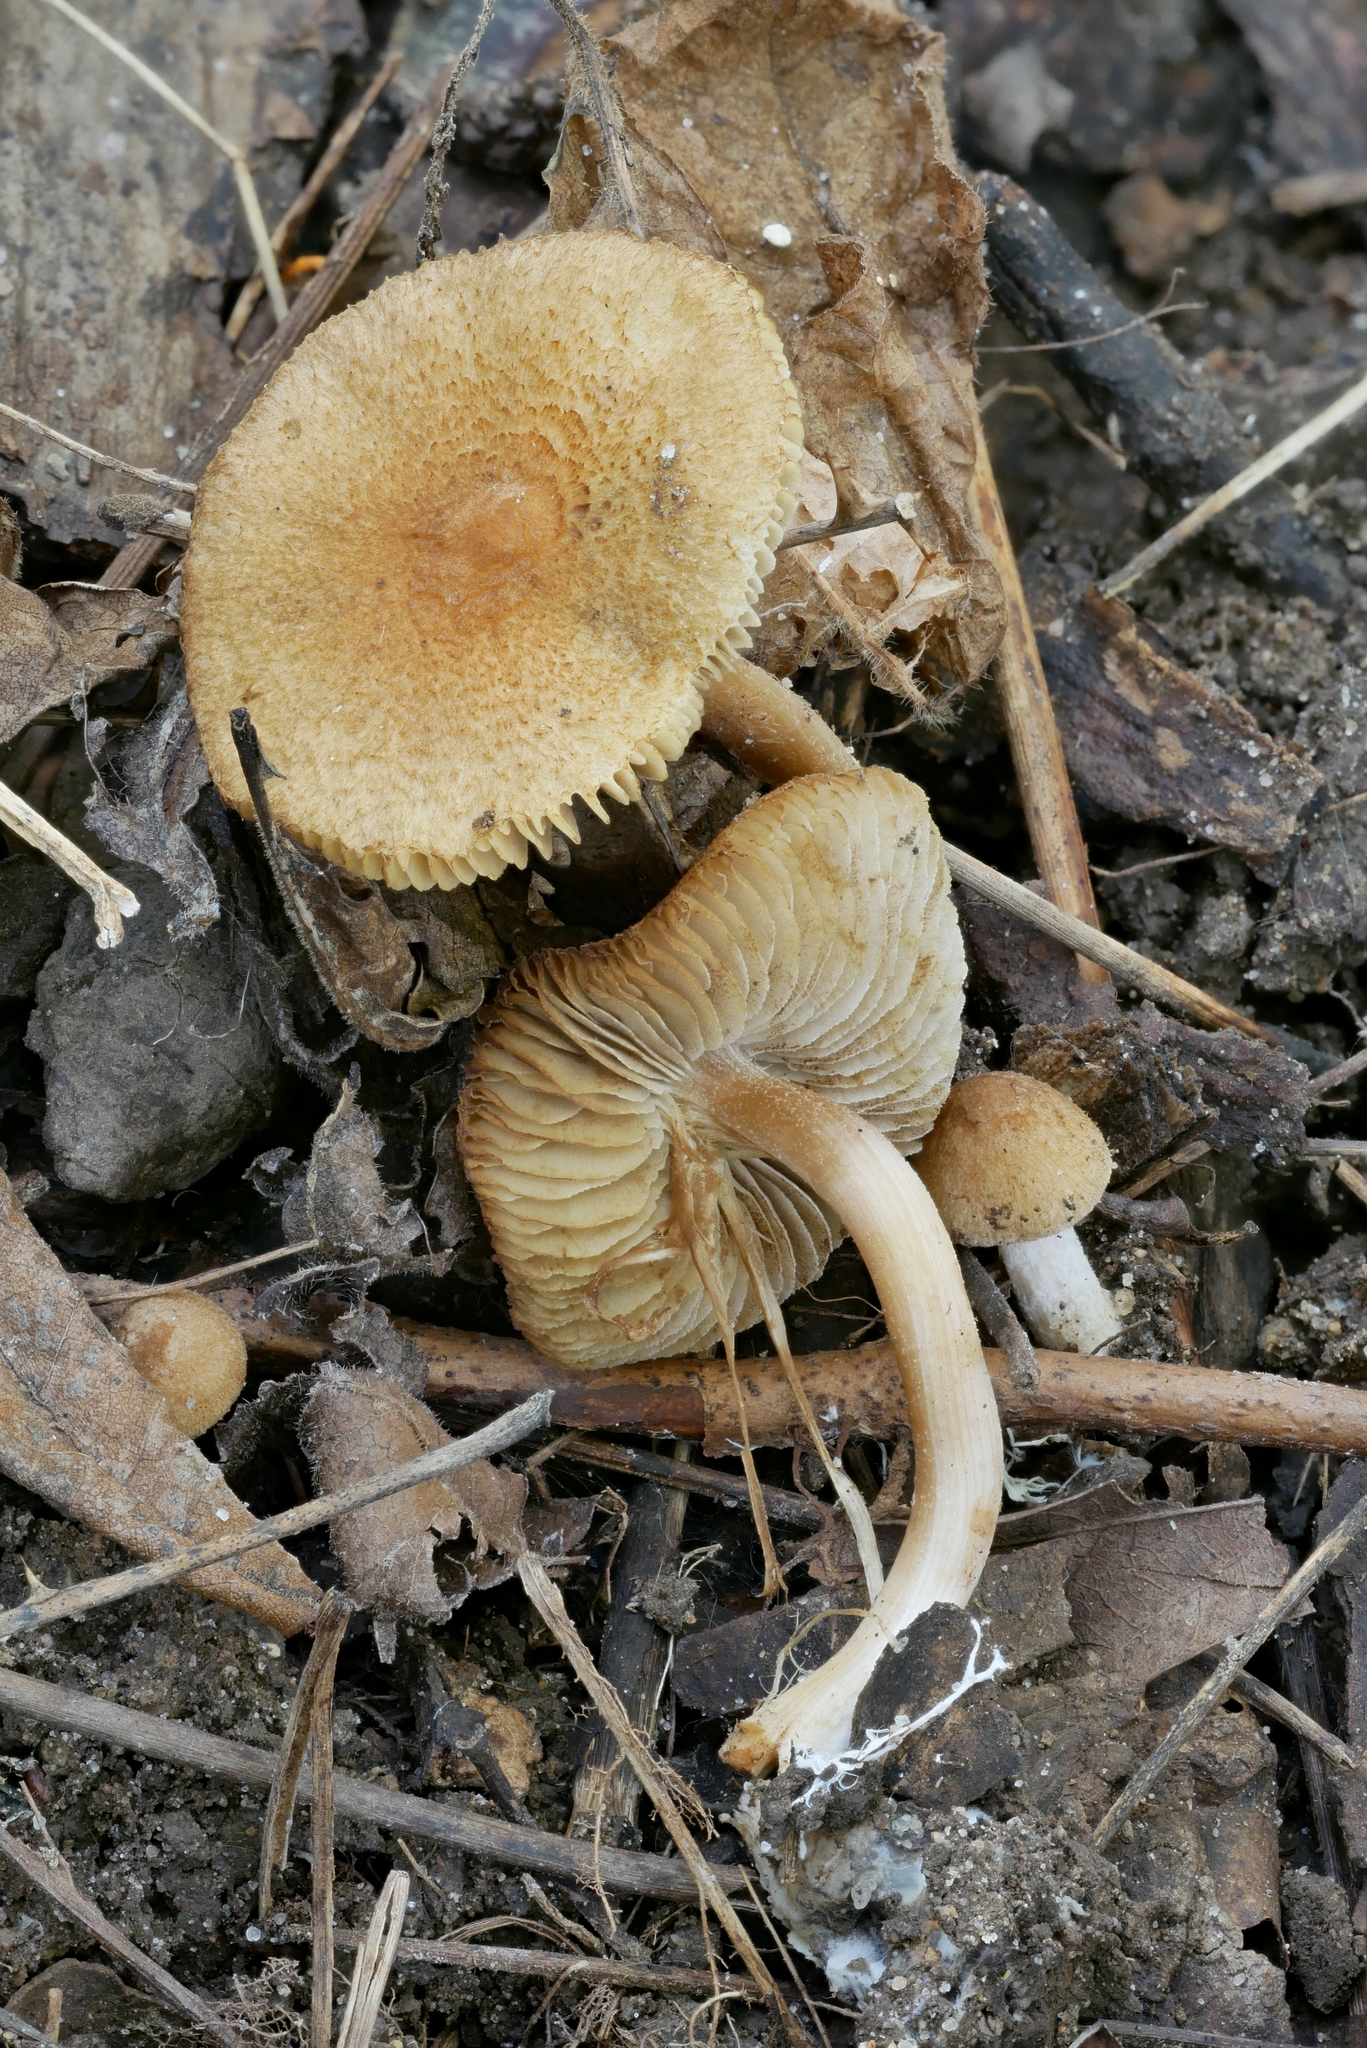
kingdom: Fungi
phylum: Basidiomycota
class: Agaricomycetes
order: Agaricales
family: Inocybaceae
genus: Inocybe
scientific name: Inocybe microteroxantha
